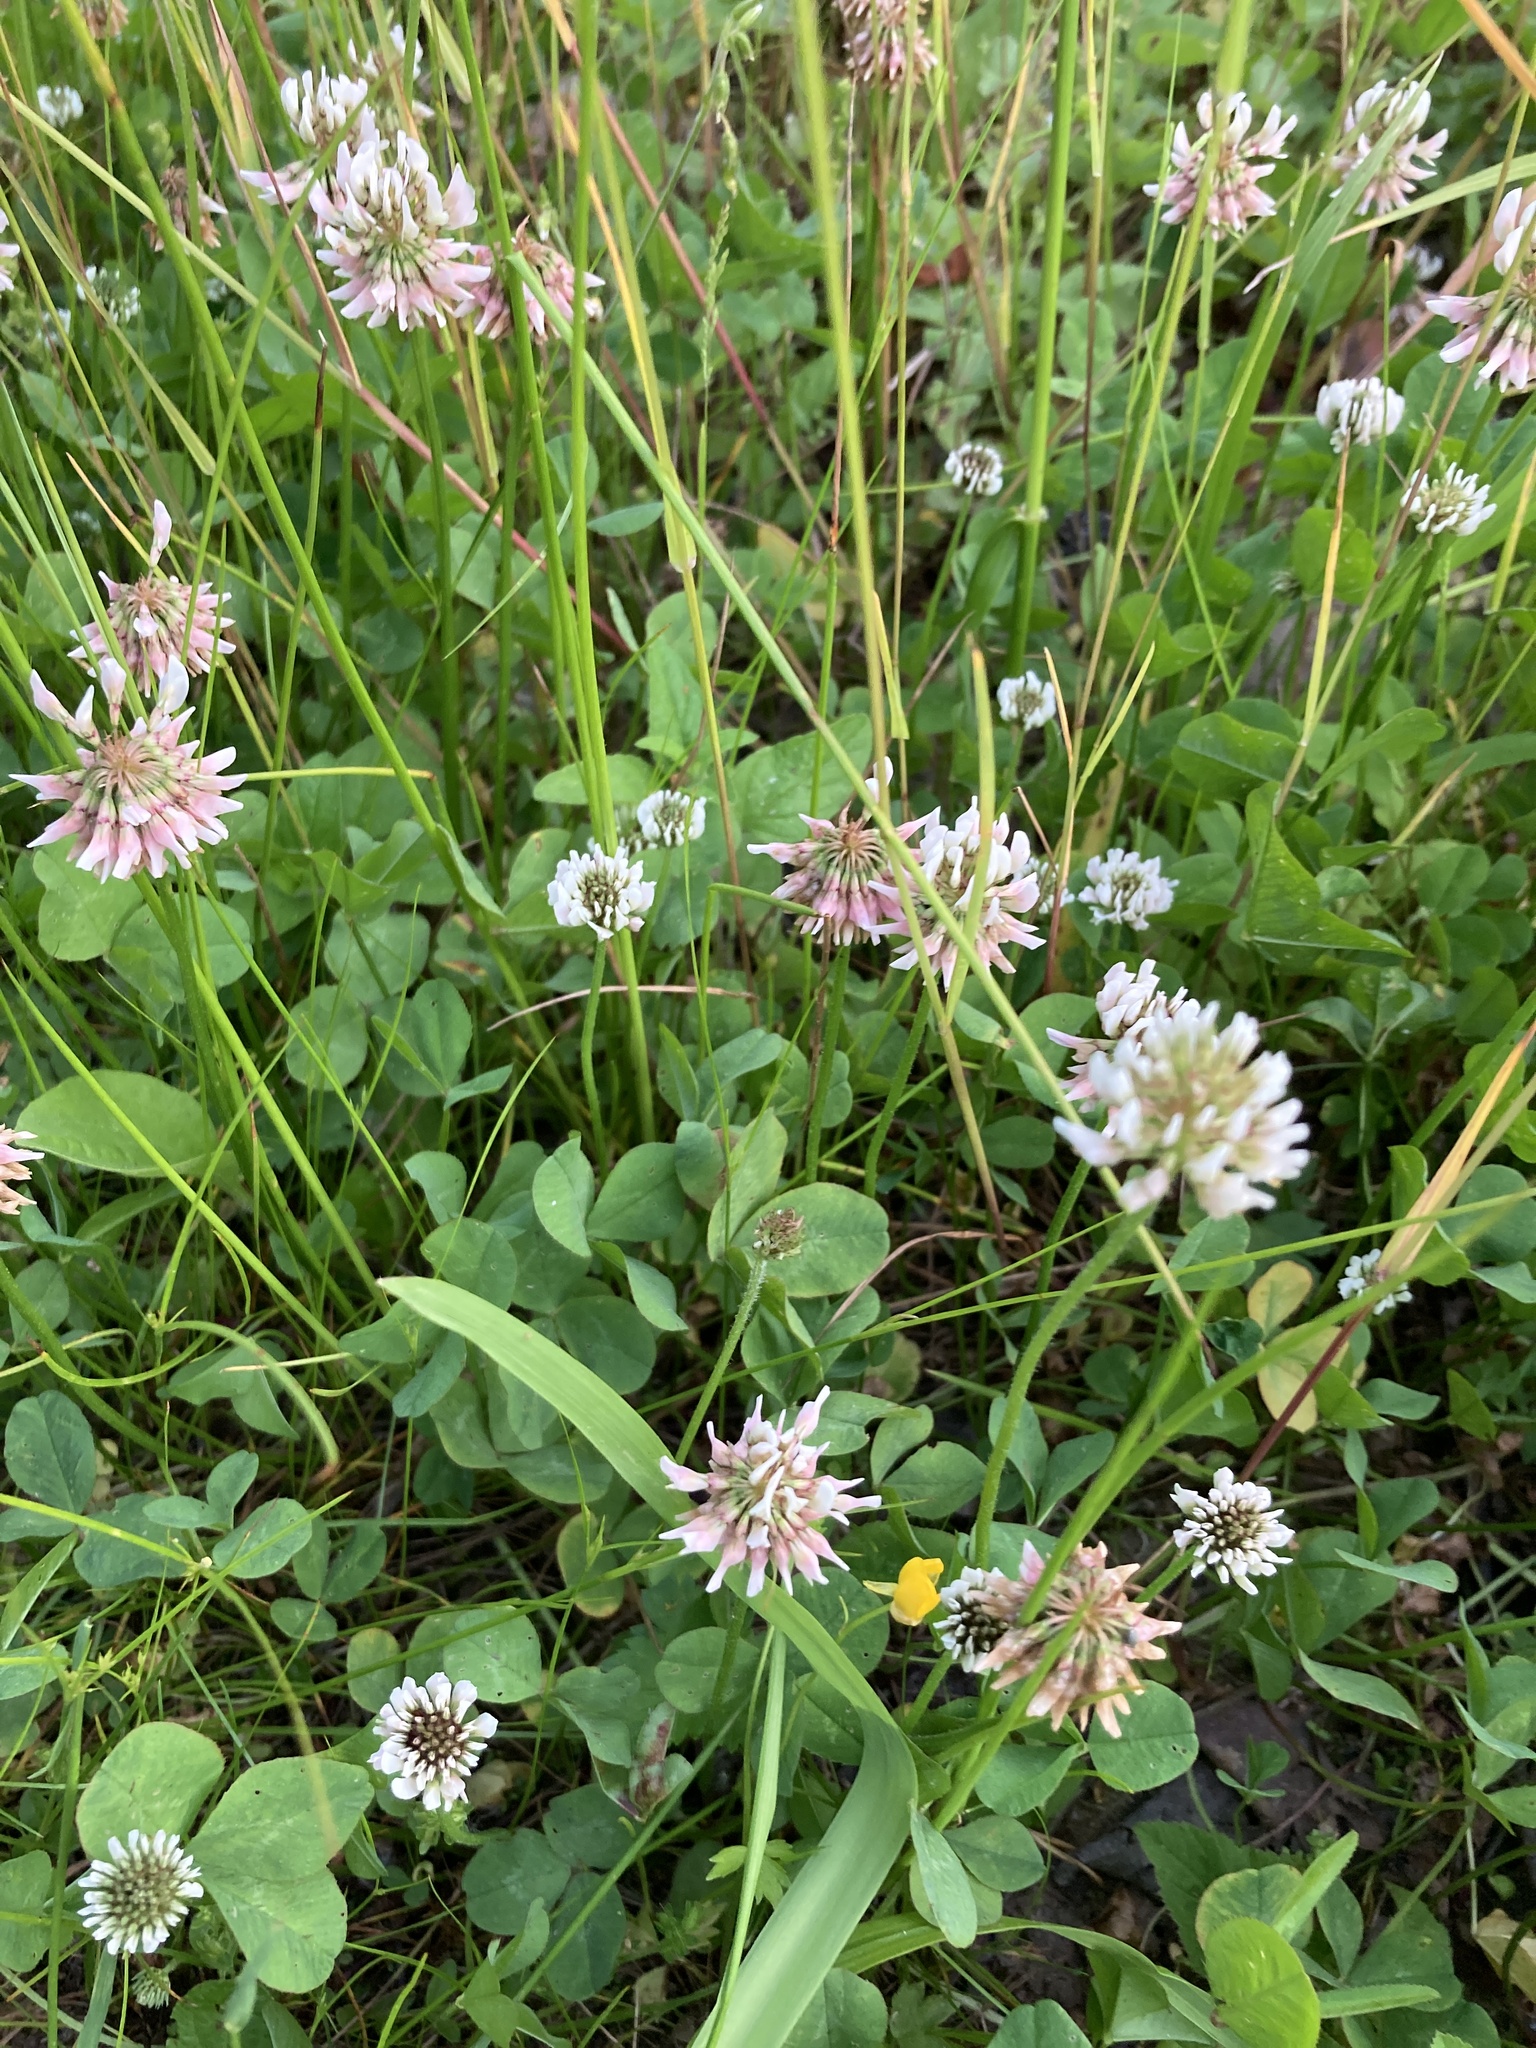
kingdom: Plantae
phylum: Tracheophyta
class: Magnoliopsida
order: Fabales
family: Fabaceae
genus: Trifolium
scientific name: Trifolium repens
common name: White clover
